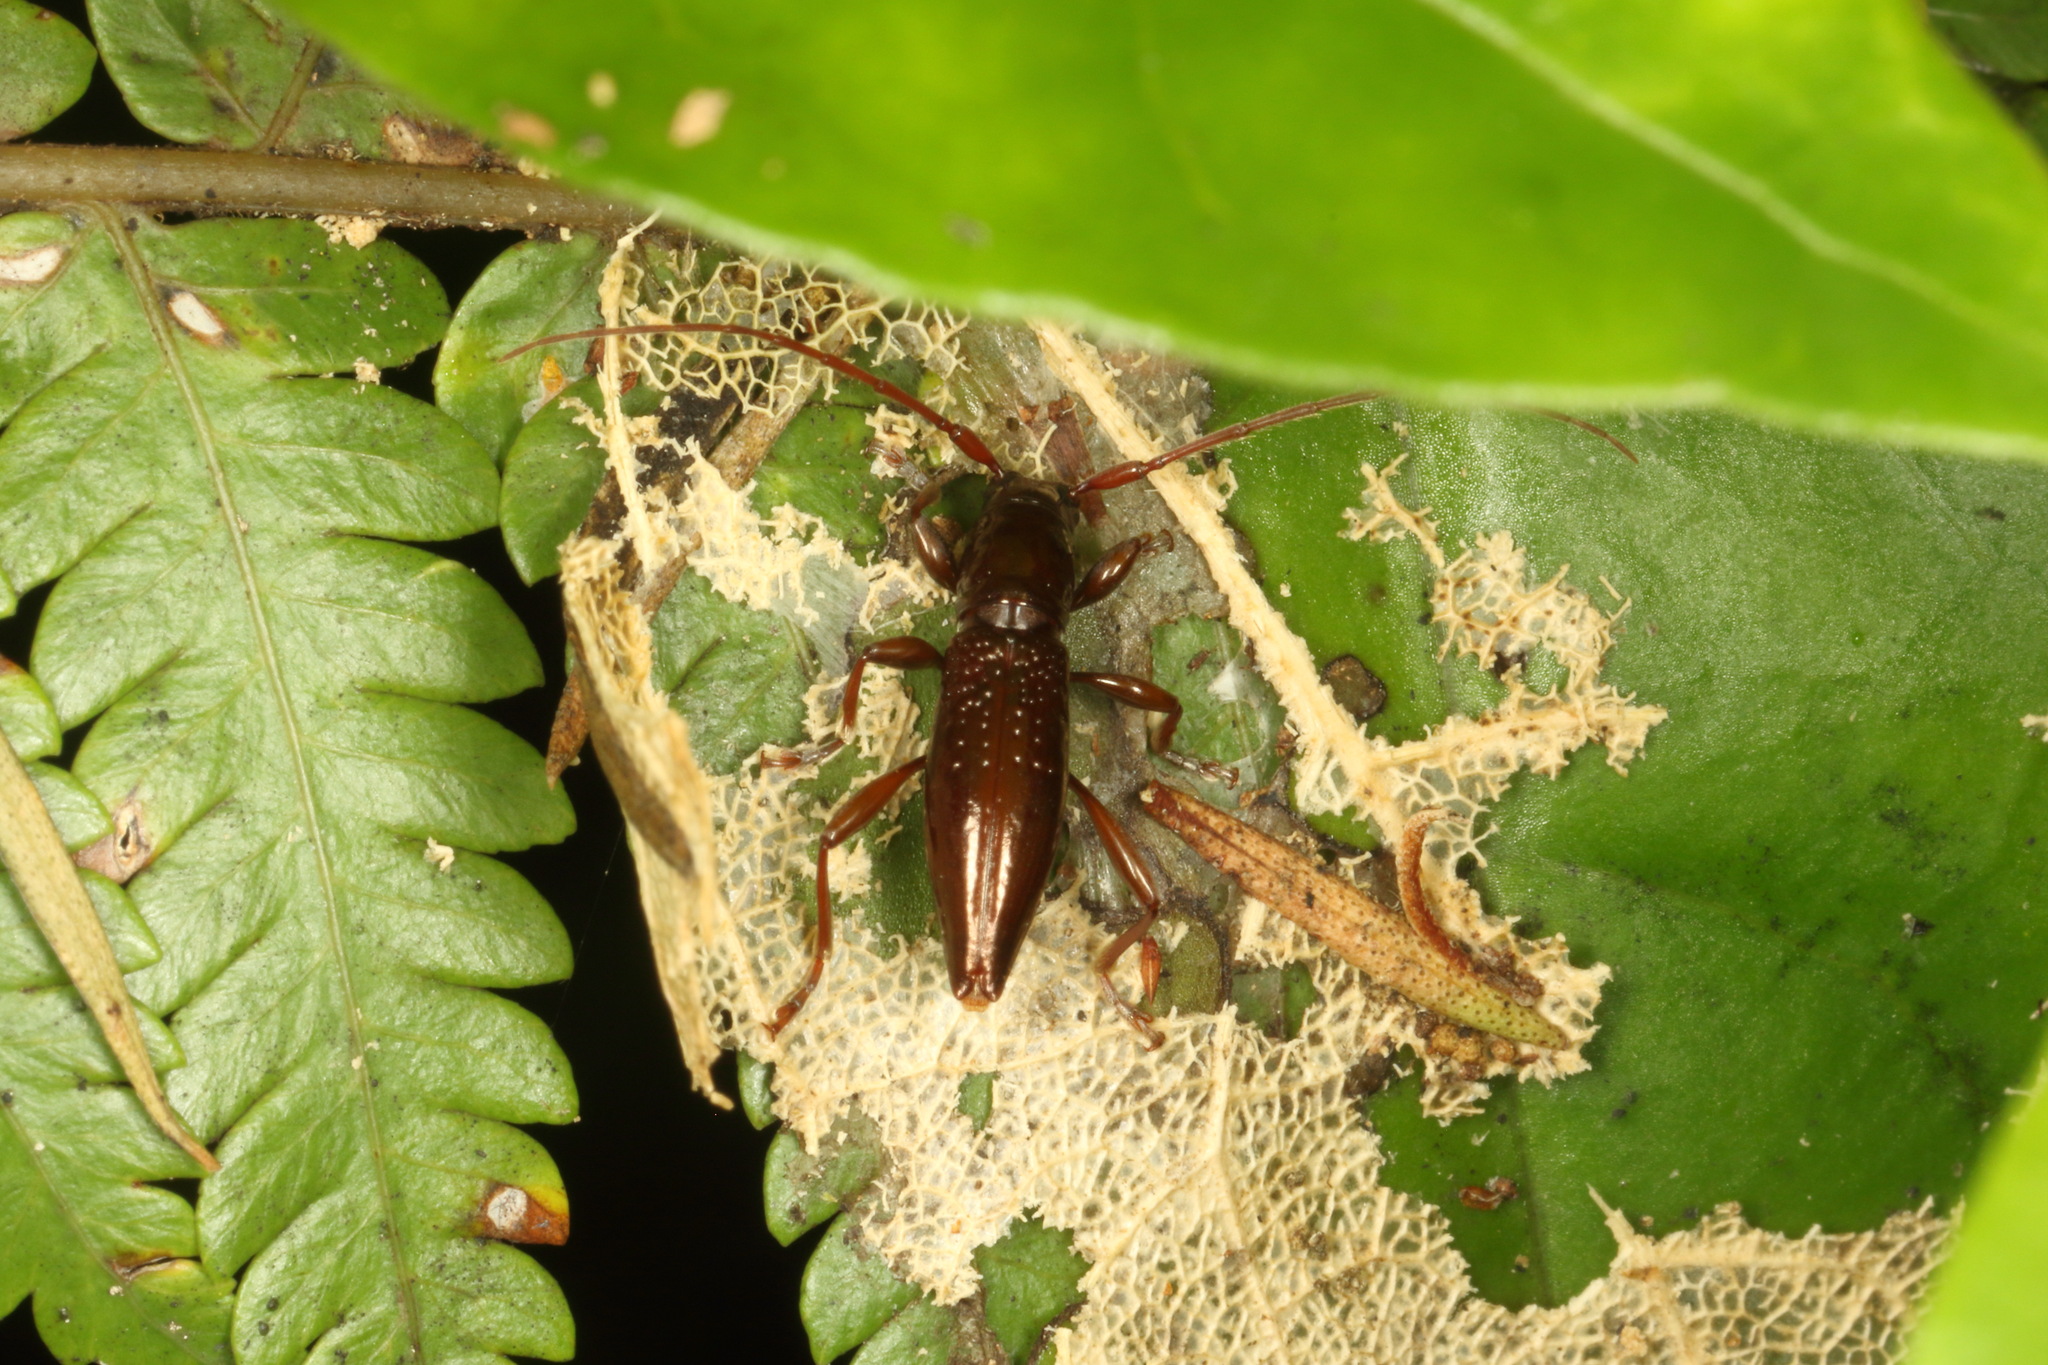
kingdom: Animalia
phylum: Arthropoda
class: Insecta
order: Coleoptera
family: Cerambycidae
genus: Xylotoles
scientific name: Xylotoles nudus
